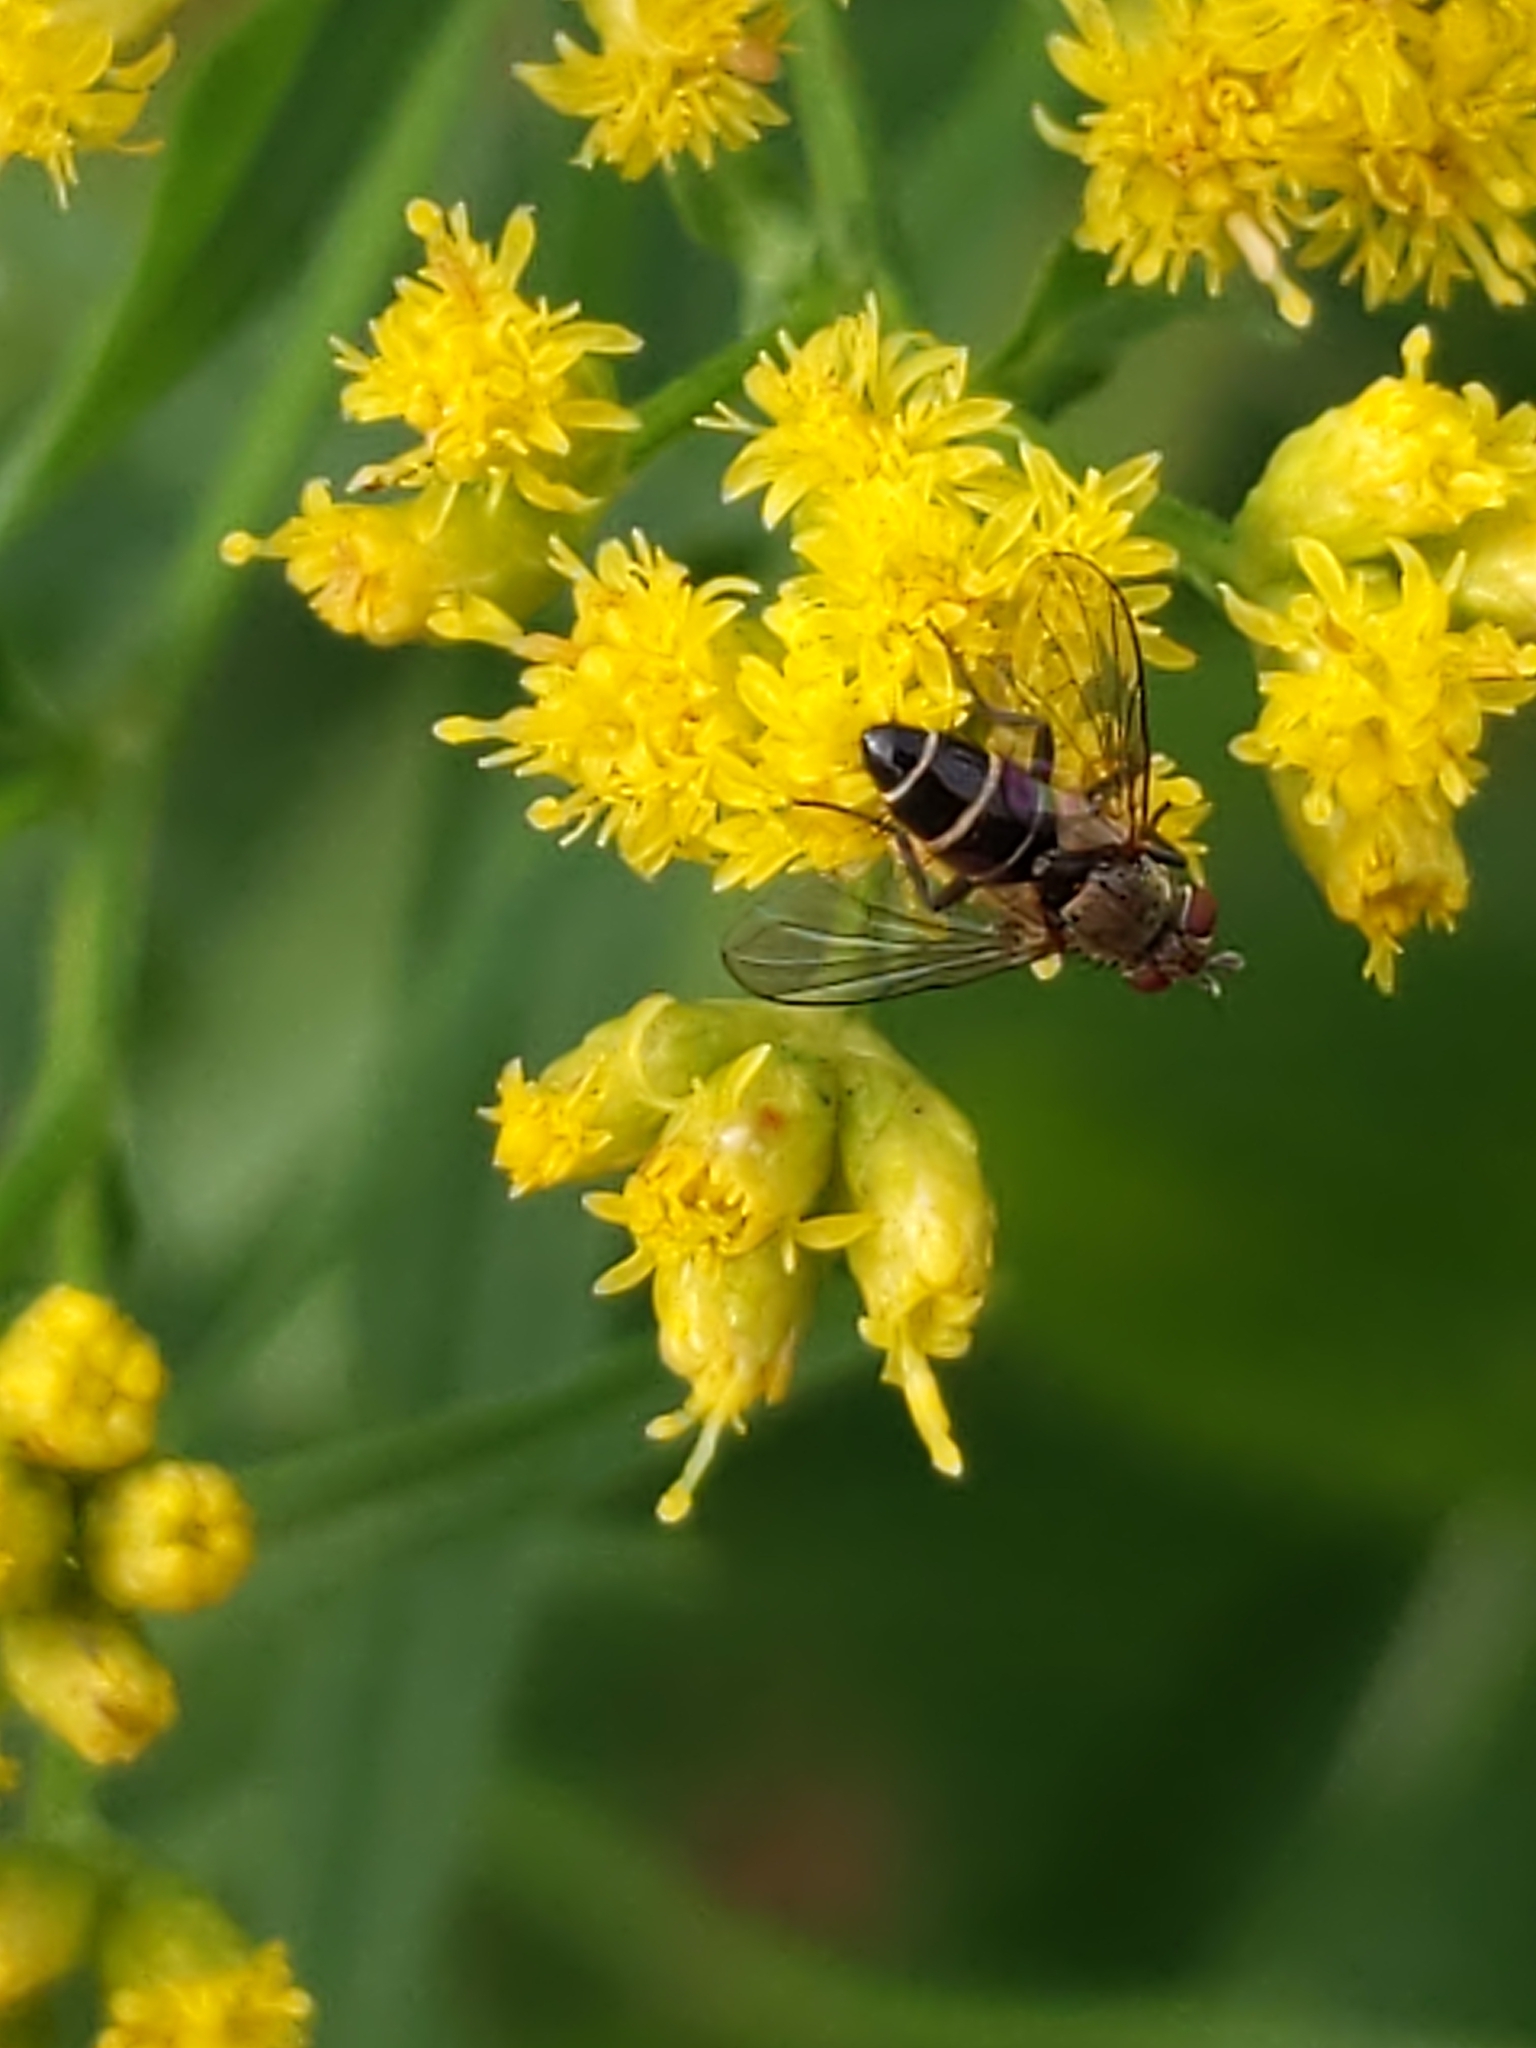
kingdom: Plantae
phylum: Tracheophyta
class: Magnoliopsida
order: Asterales
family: Asteraceae
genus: Euthamia
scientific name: Euthamia graminifolia
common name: Common goldentop
